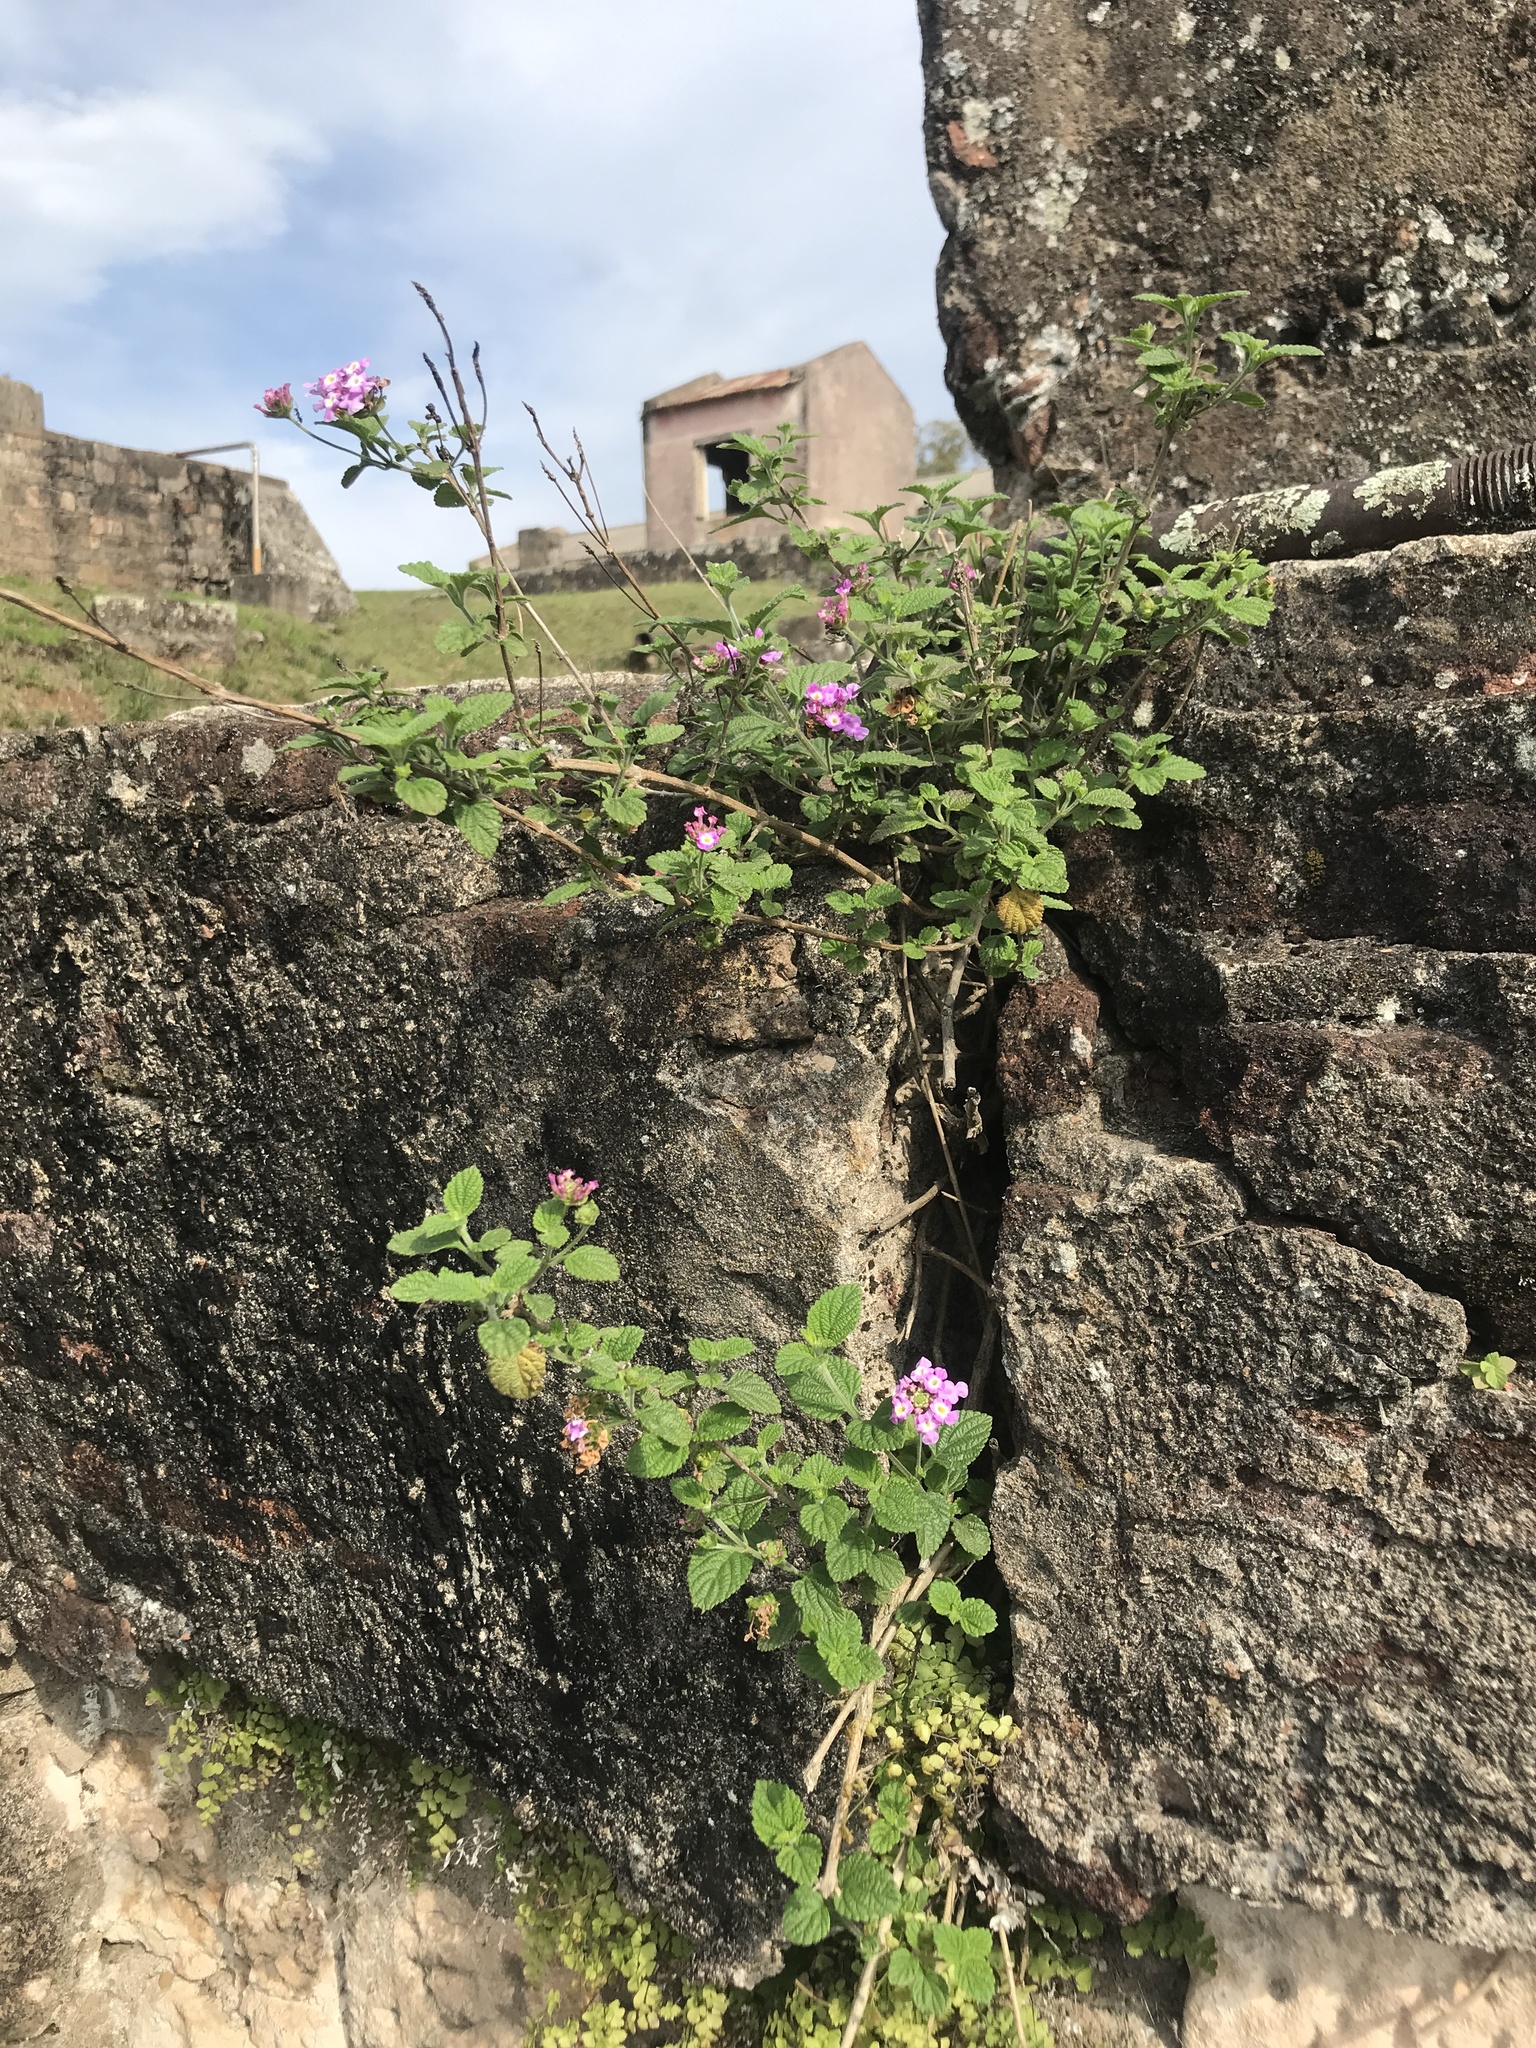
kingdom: Plantae
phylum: Tracheophyta
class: Magnoliopsida
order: Lamiales
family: Verbenaceae
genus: Lantana
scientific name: Lantana montevidensis
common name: Trailing shrubverbena
